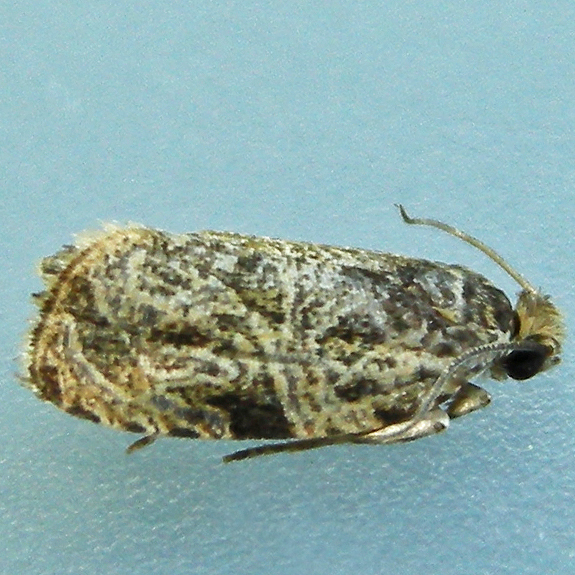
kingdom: Animalia
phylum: Arthropoda
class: Insecta
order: Lepidoptera
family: Tortricidae
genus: Olethreutes
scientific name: Olethreutes furfuranum
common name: Woolly-backed moth
